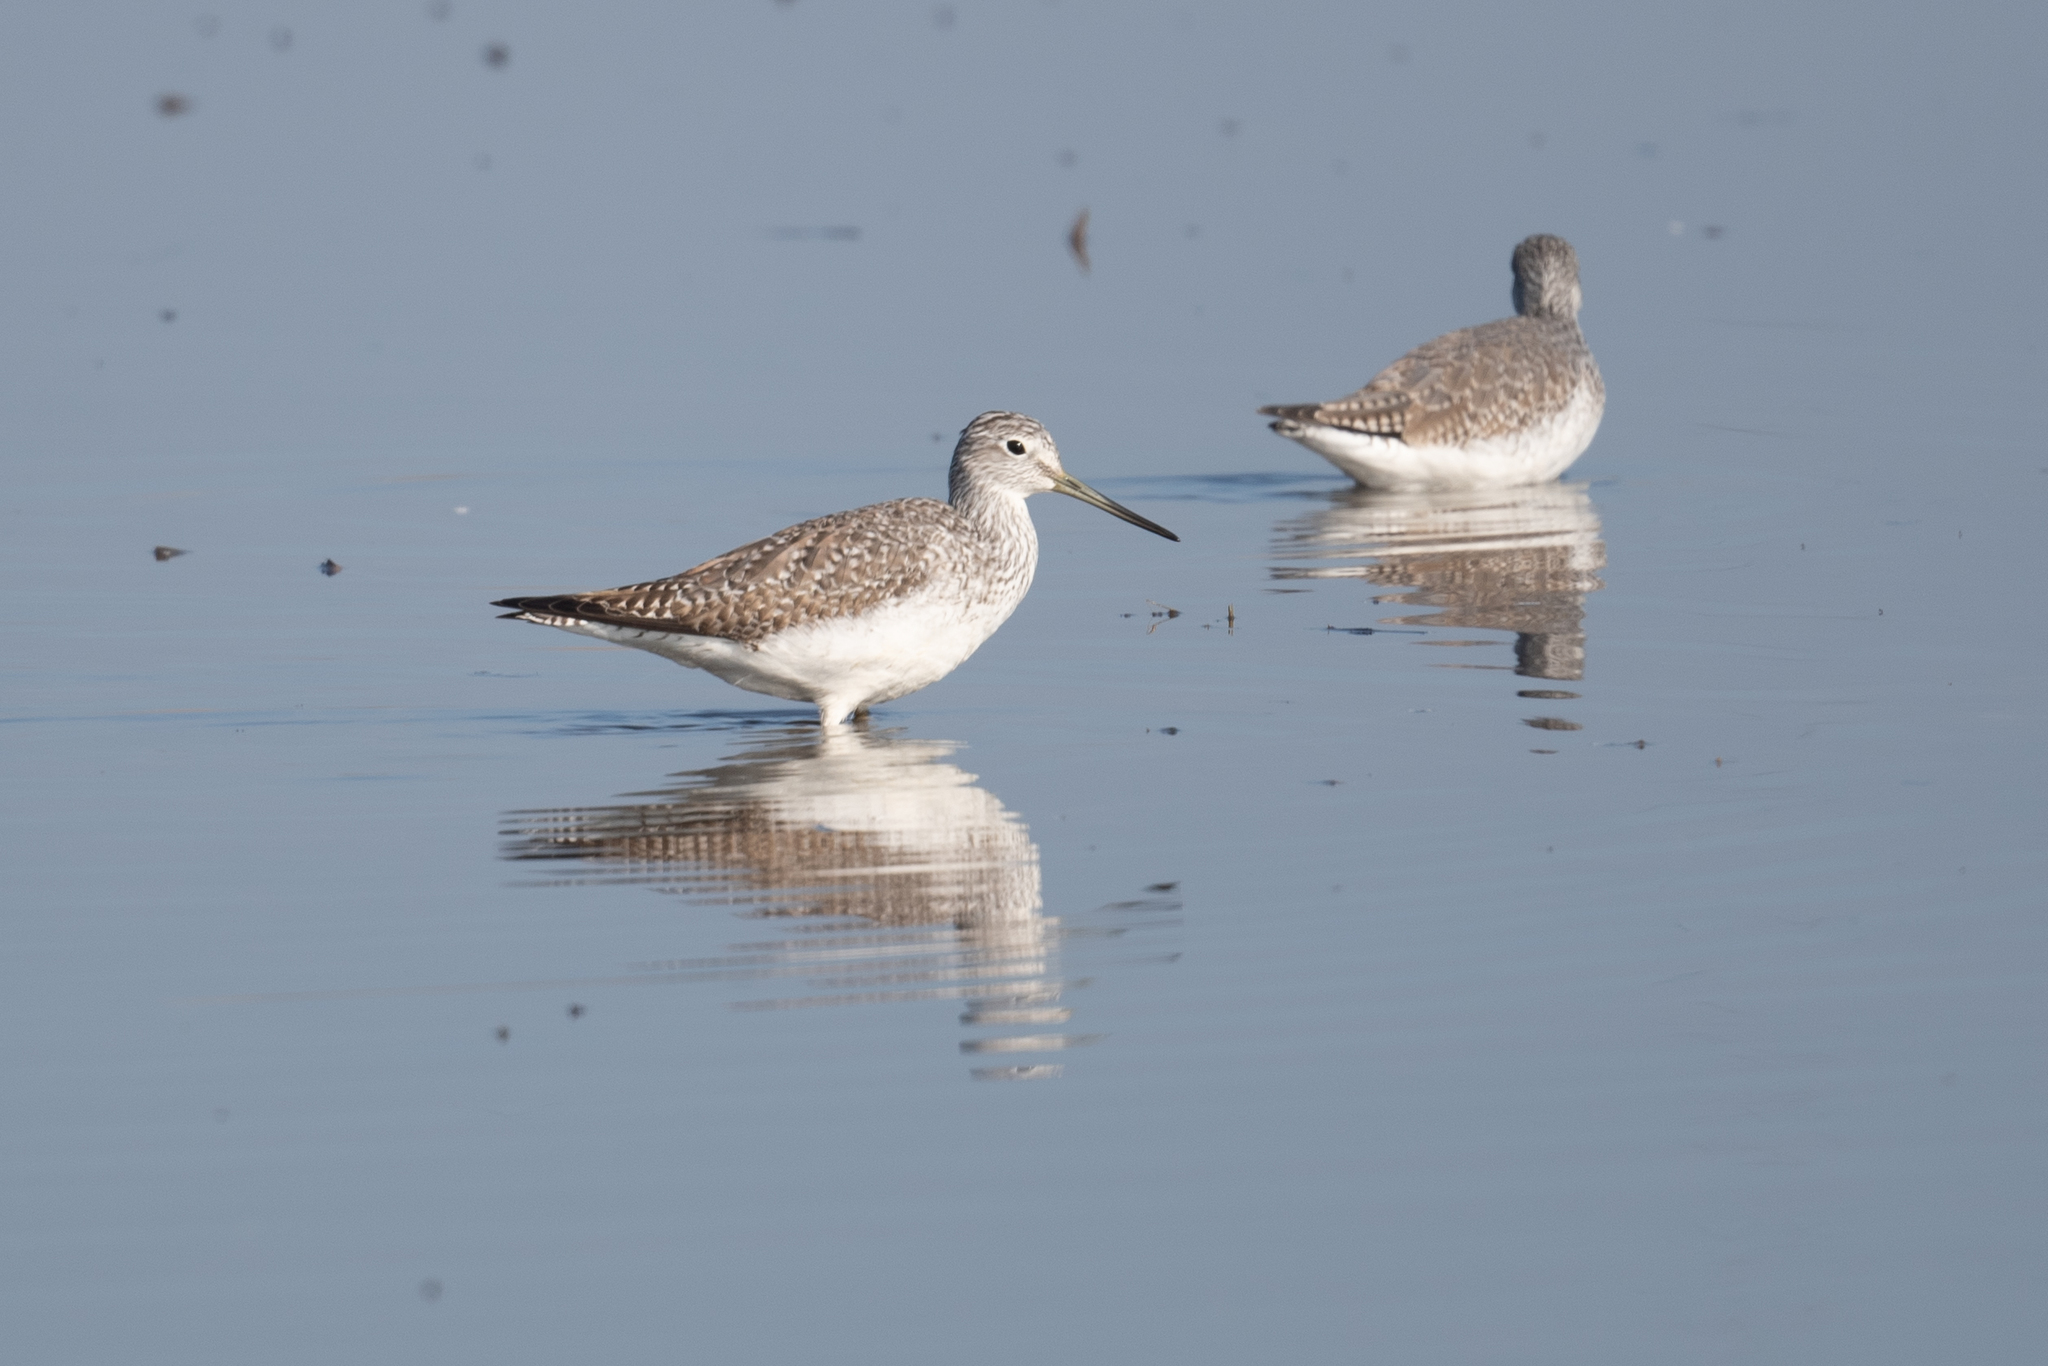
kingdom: Animalia
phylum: Chordata
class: Aves
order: Charadriiformes
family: Scolopacidae
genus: Tringa
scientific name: Tringa melanoleuca
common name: Greater yellowlegs
